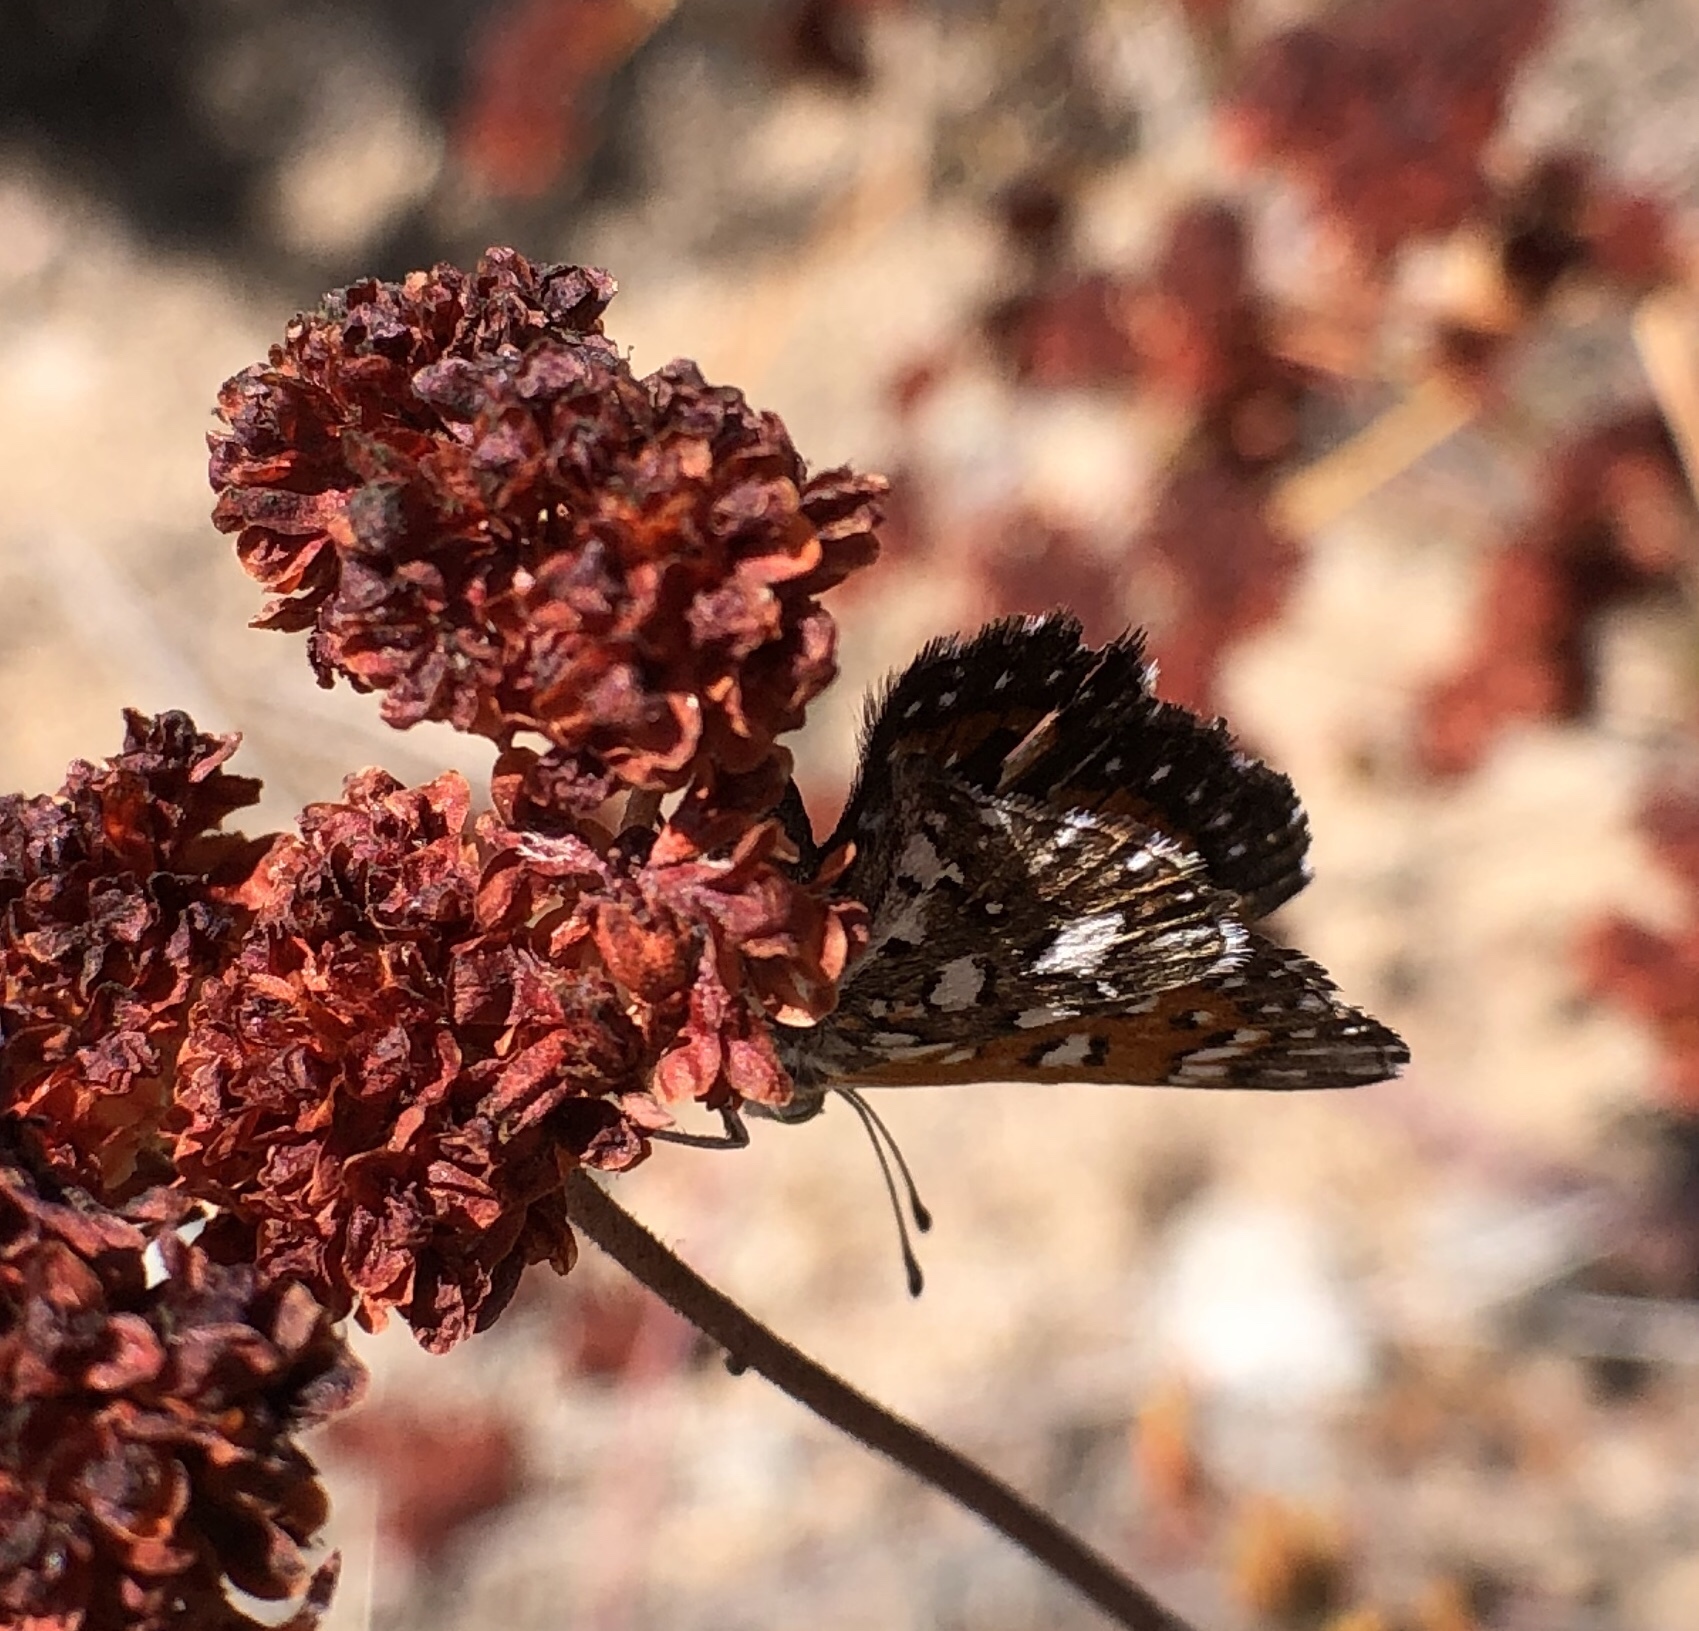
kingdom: Animalia
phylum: Arthropoda
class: Insecta
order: Lepidoptera
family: Riodinidae
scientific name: Riodinidae
